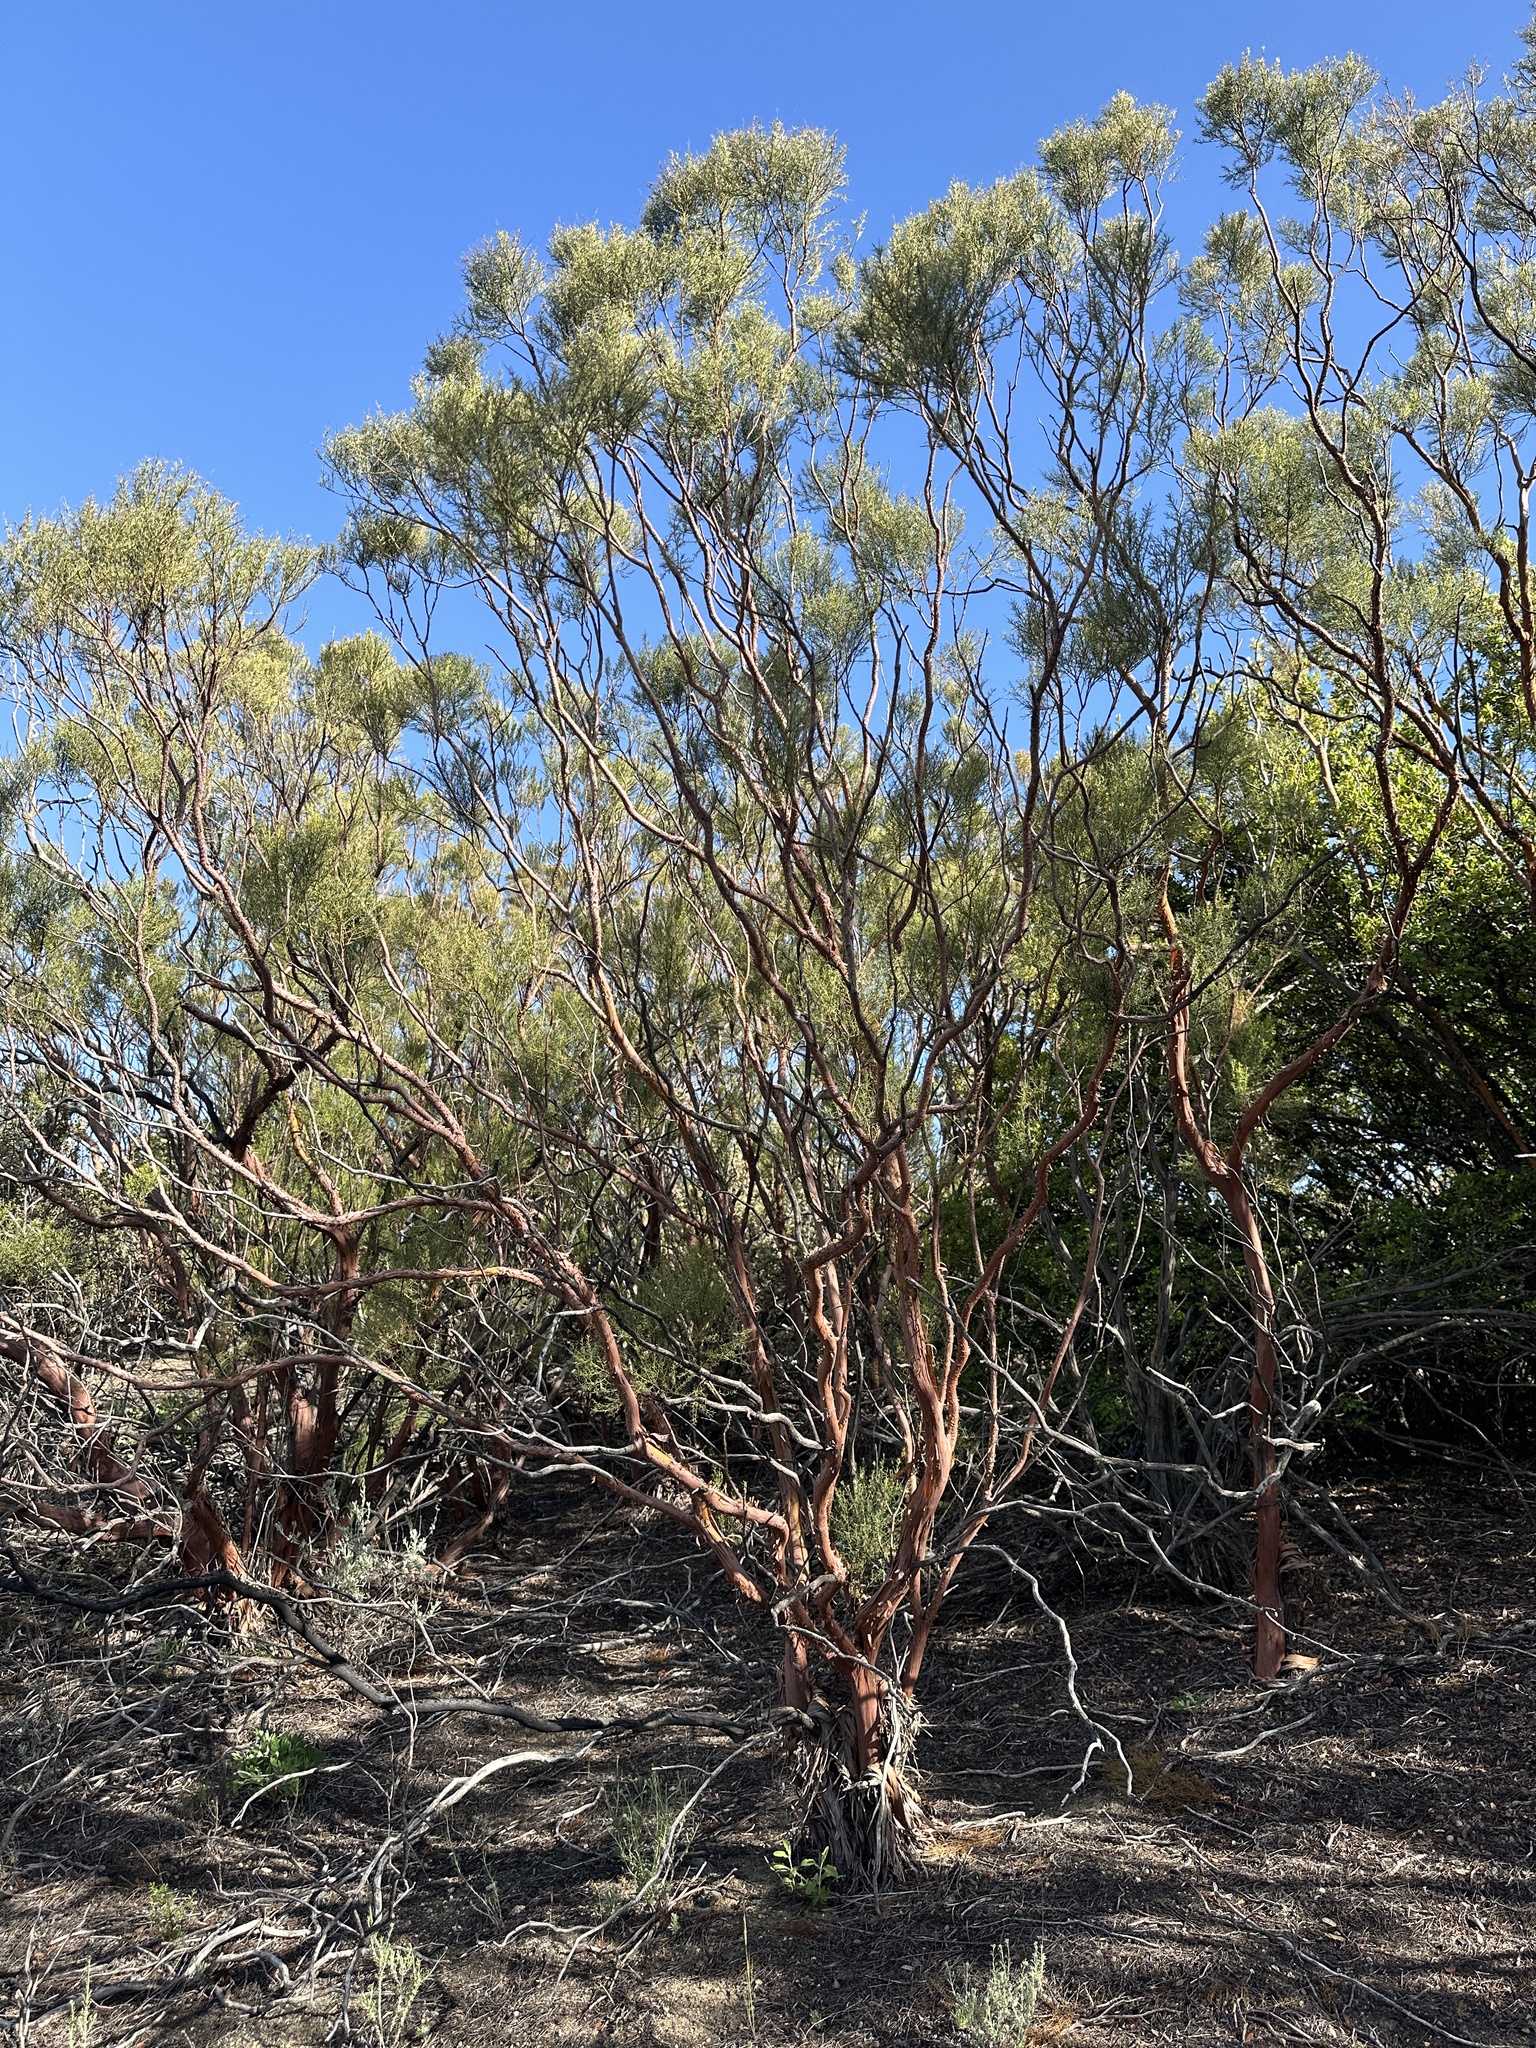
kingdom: Plantae
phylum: Tracheophyta
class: Magnoliopsida
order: Rosales
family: Rosaceae
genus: Adenostoma
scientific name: Adenostoma sparsifolium
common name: Red shank
